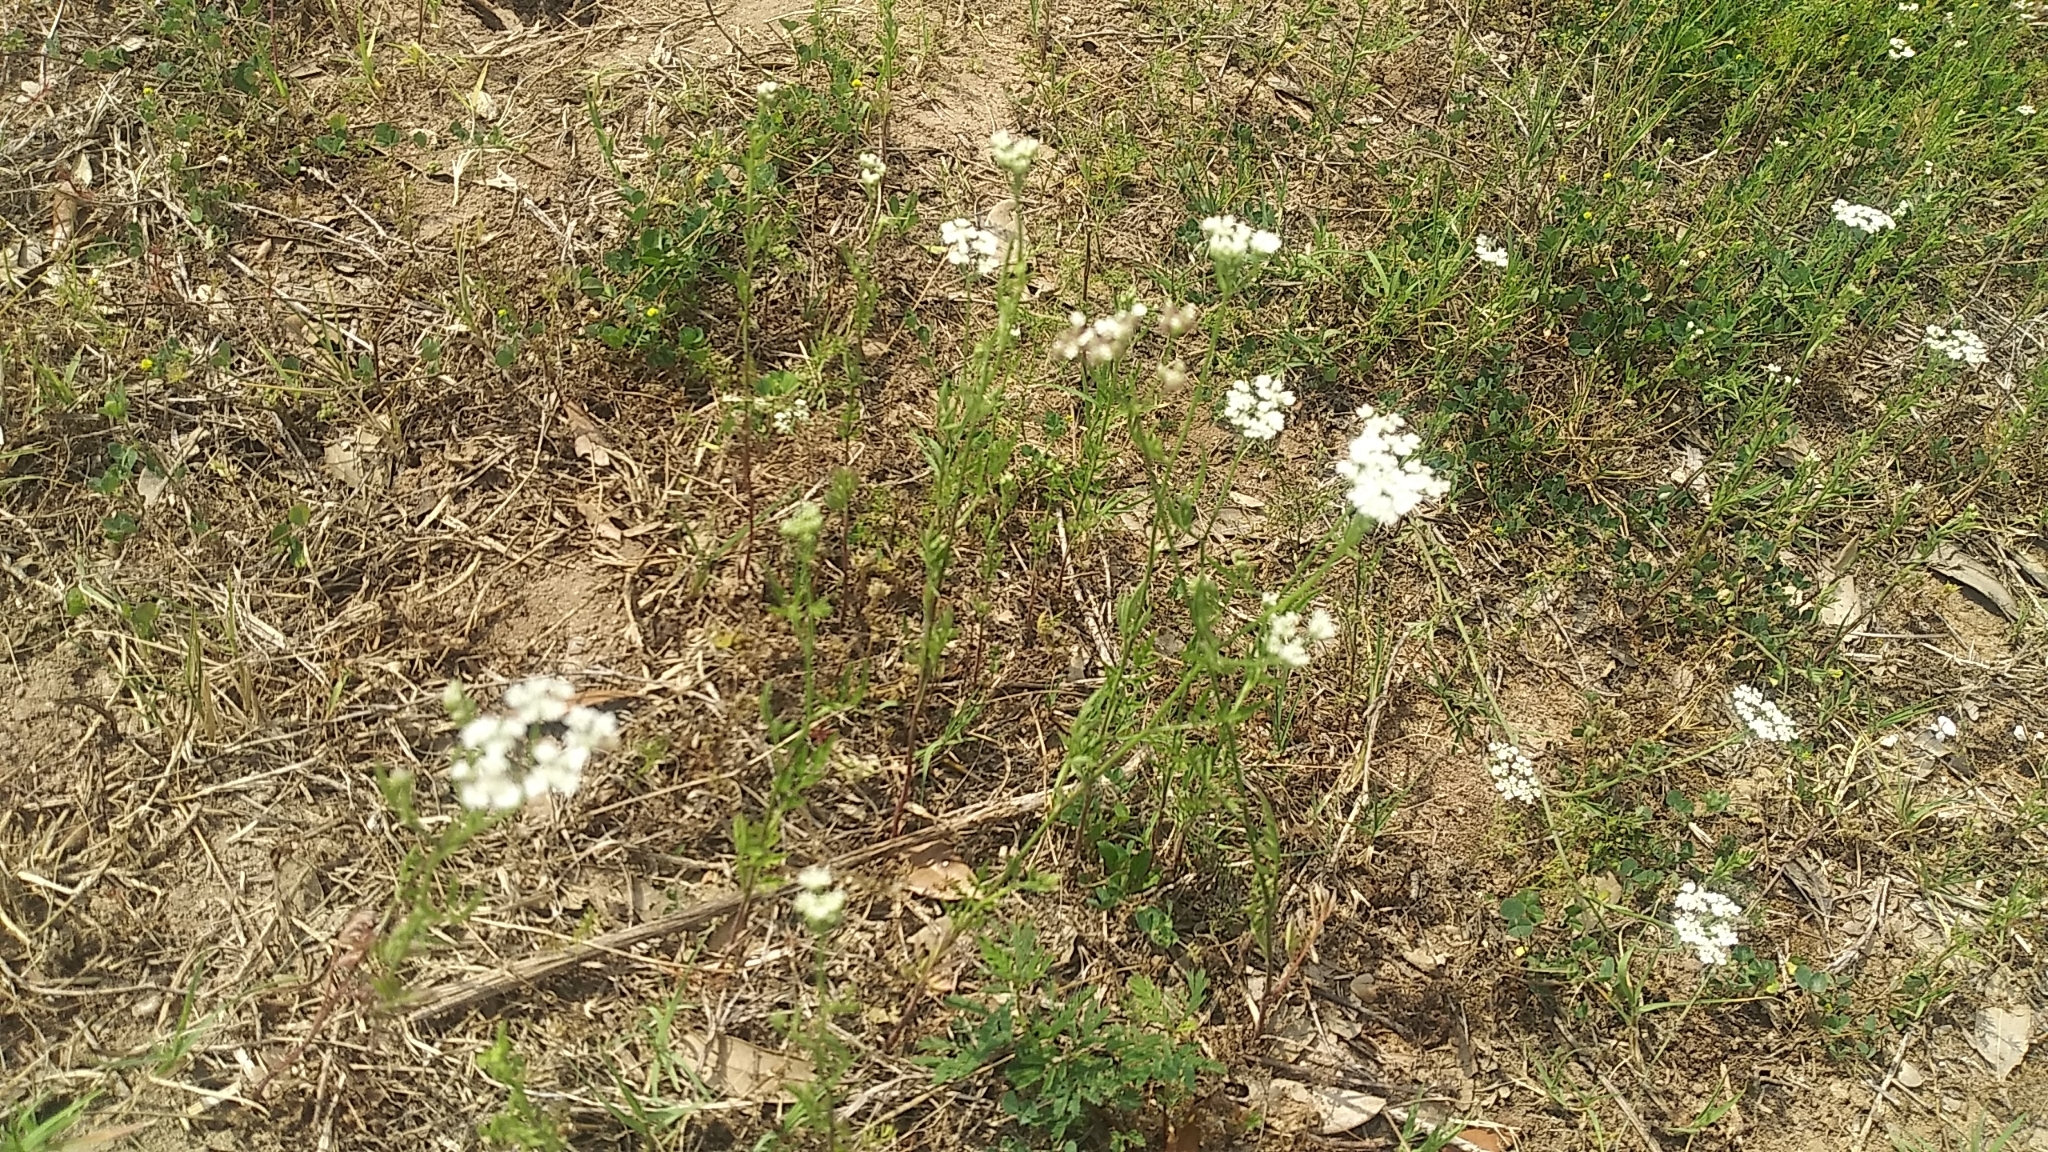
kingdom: Plantae
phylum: Tracheophyta
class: Magnoliopsida
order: Apiales
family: Apiaceae
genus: Torilis
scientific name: Torilis arvensis
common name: Spreading hedge-parsley
